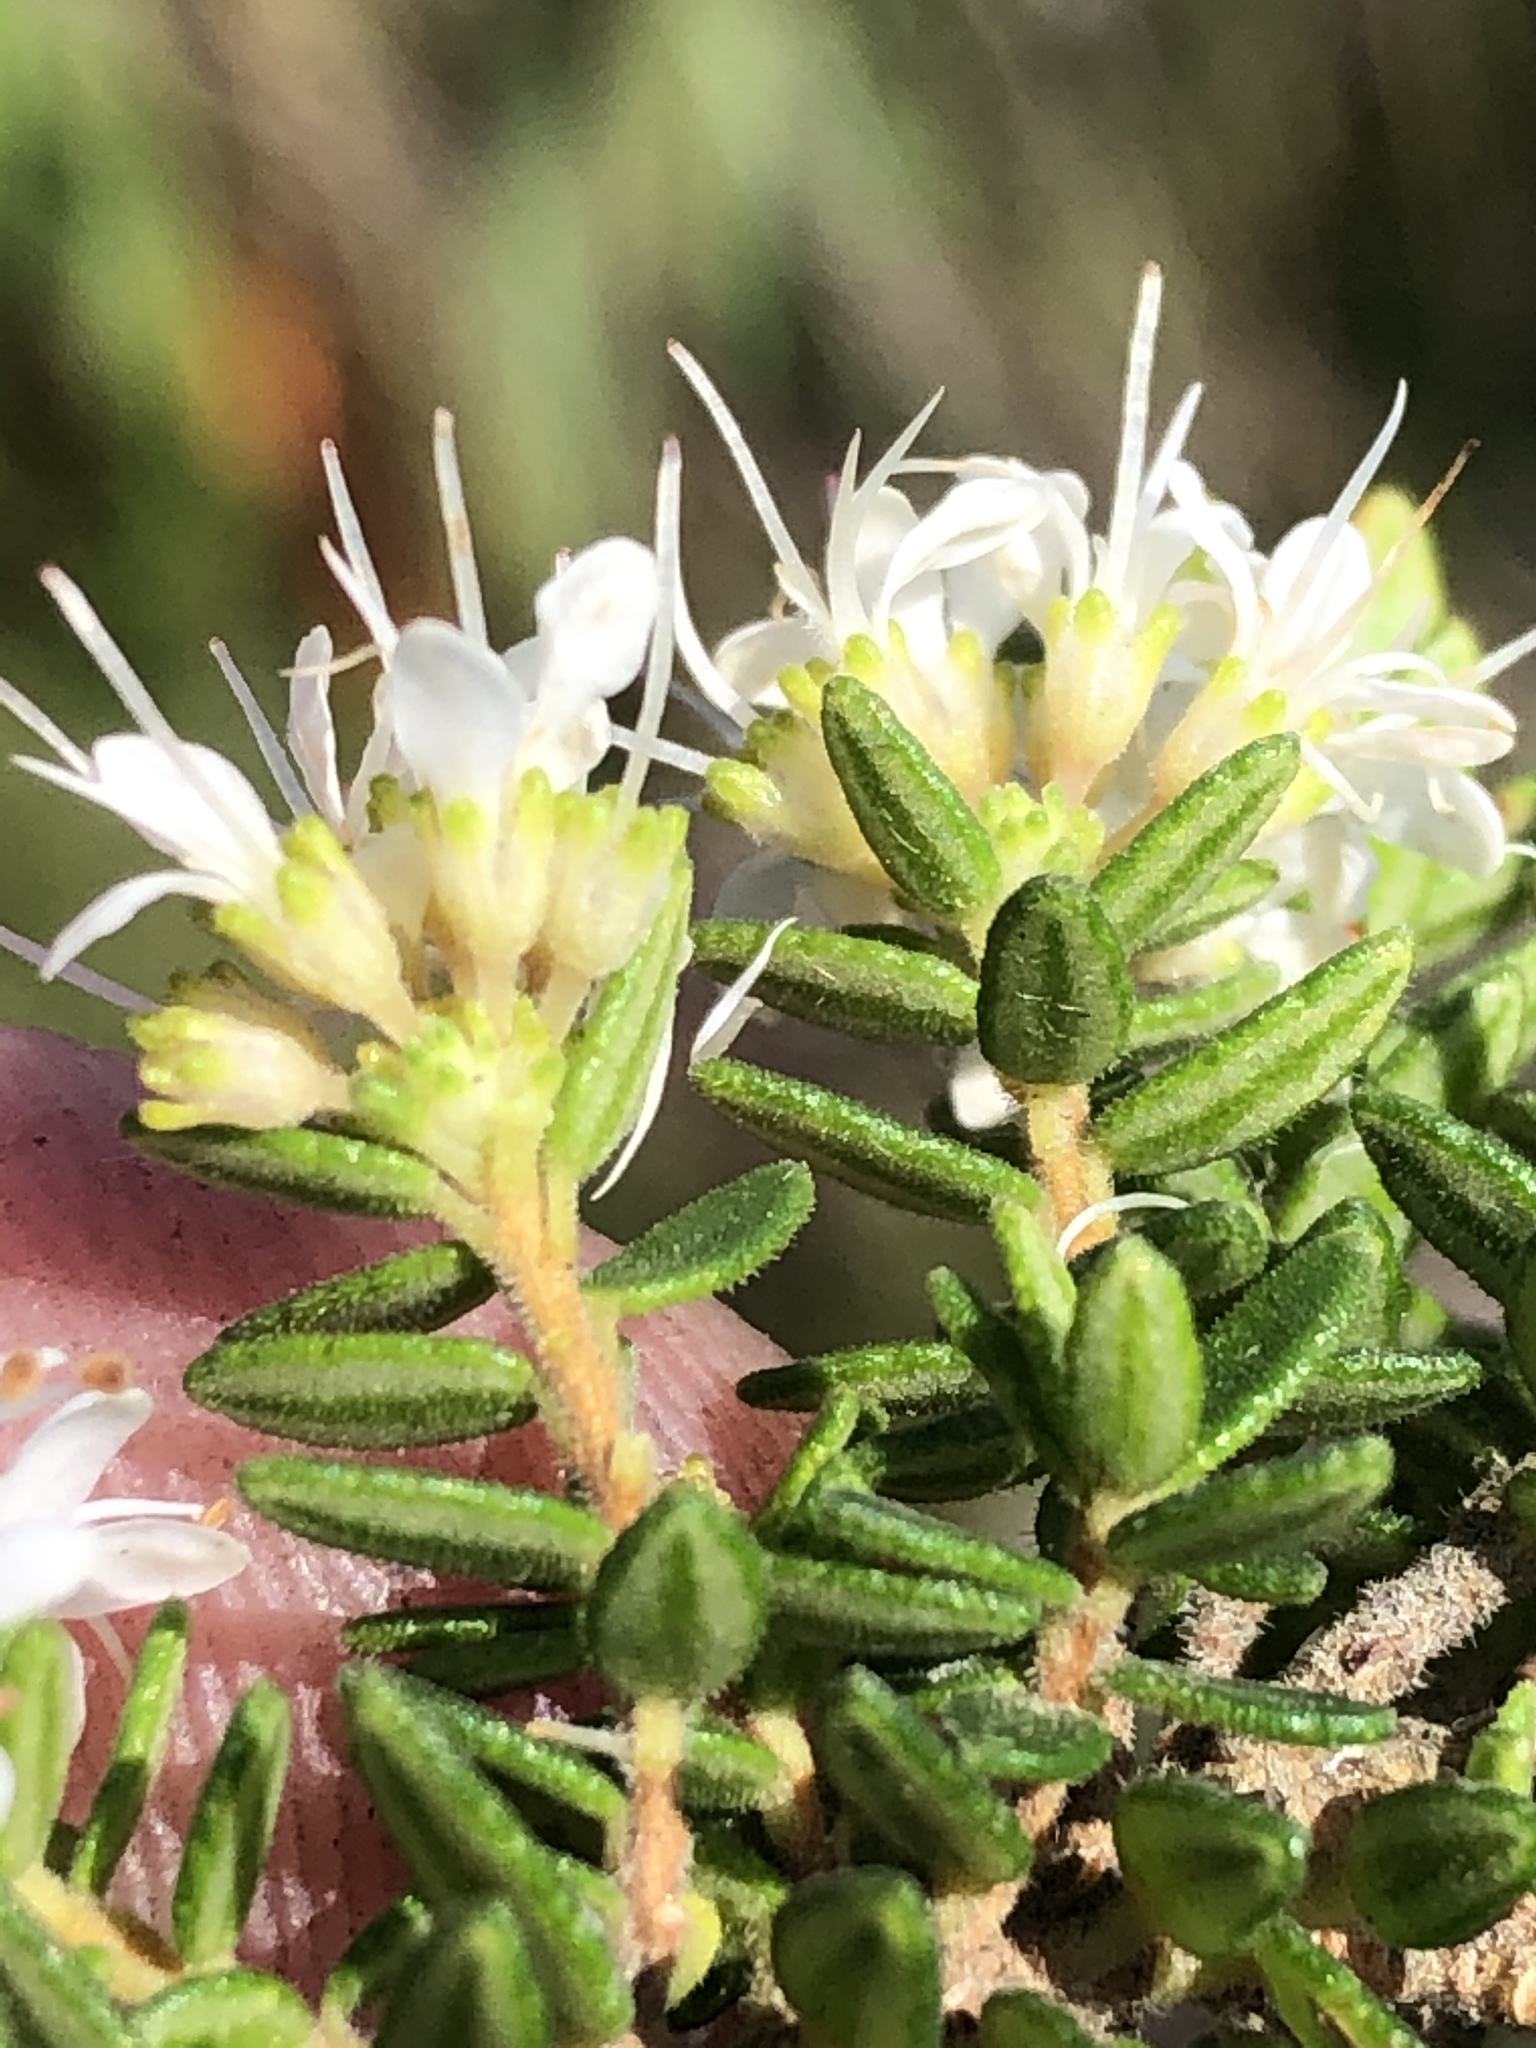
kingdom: Plantae
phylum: Tracheophyta
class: Magnoliopsida
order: Sapindales
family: Rutaceae
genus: Agathosma
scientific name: Agathosma mundtii
